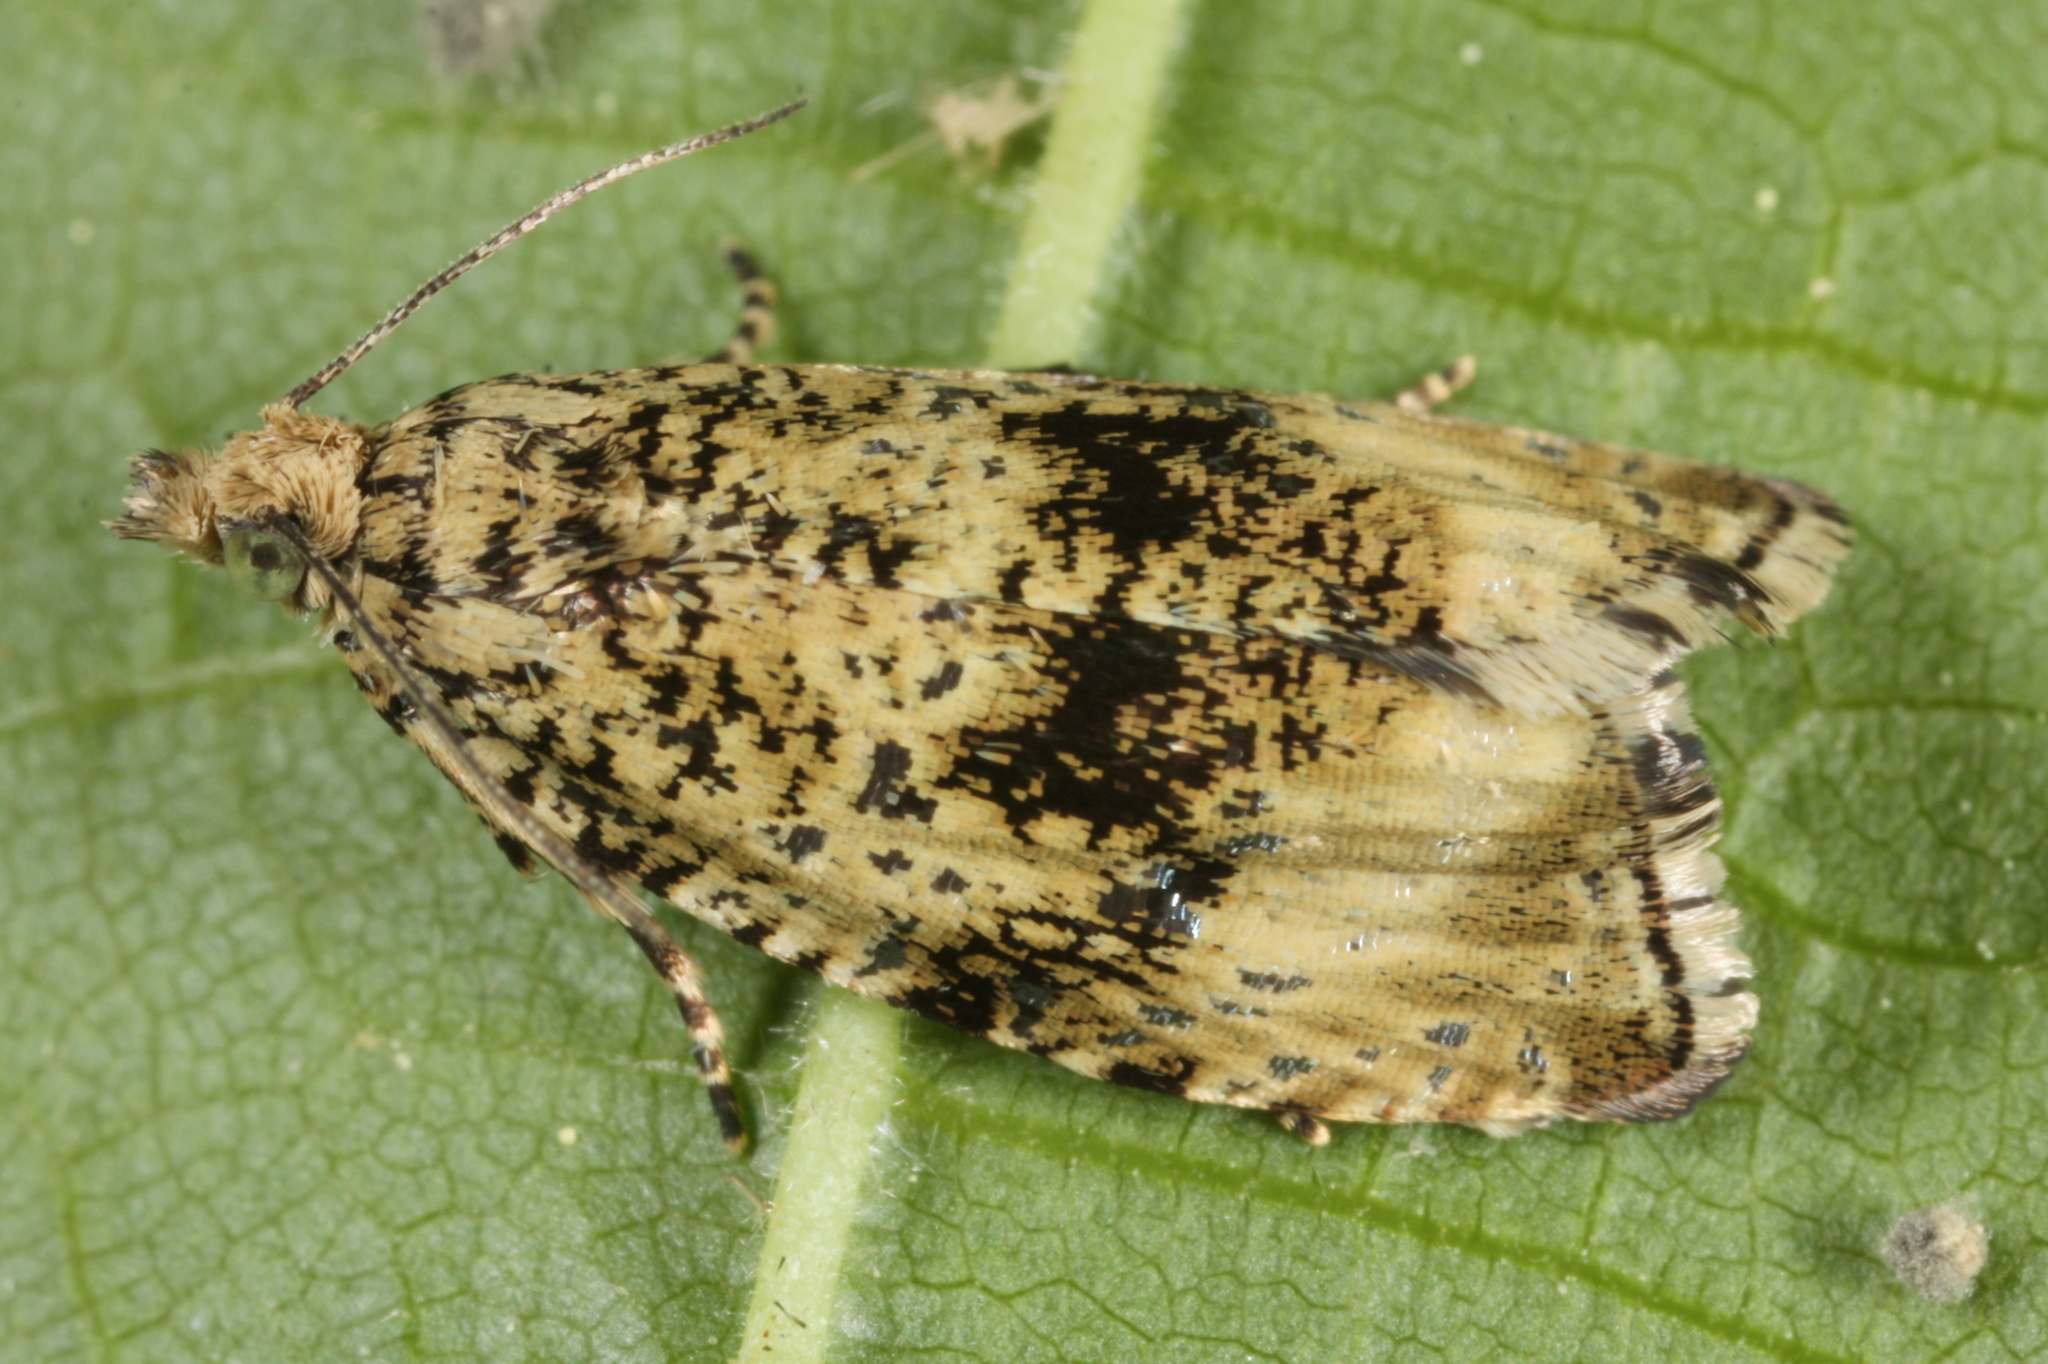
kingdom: Animalia
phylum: Arthropoda
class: Insecta
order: Lepidoptera
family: Tortricidae
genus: Syricoris
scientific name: Syricoris lacunana
